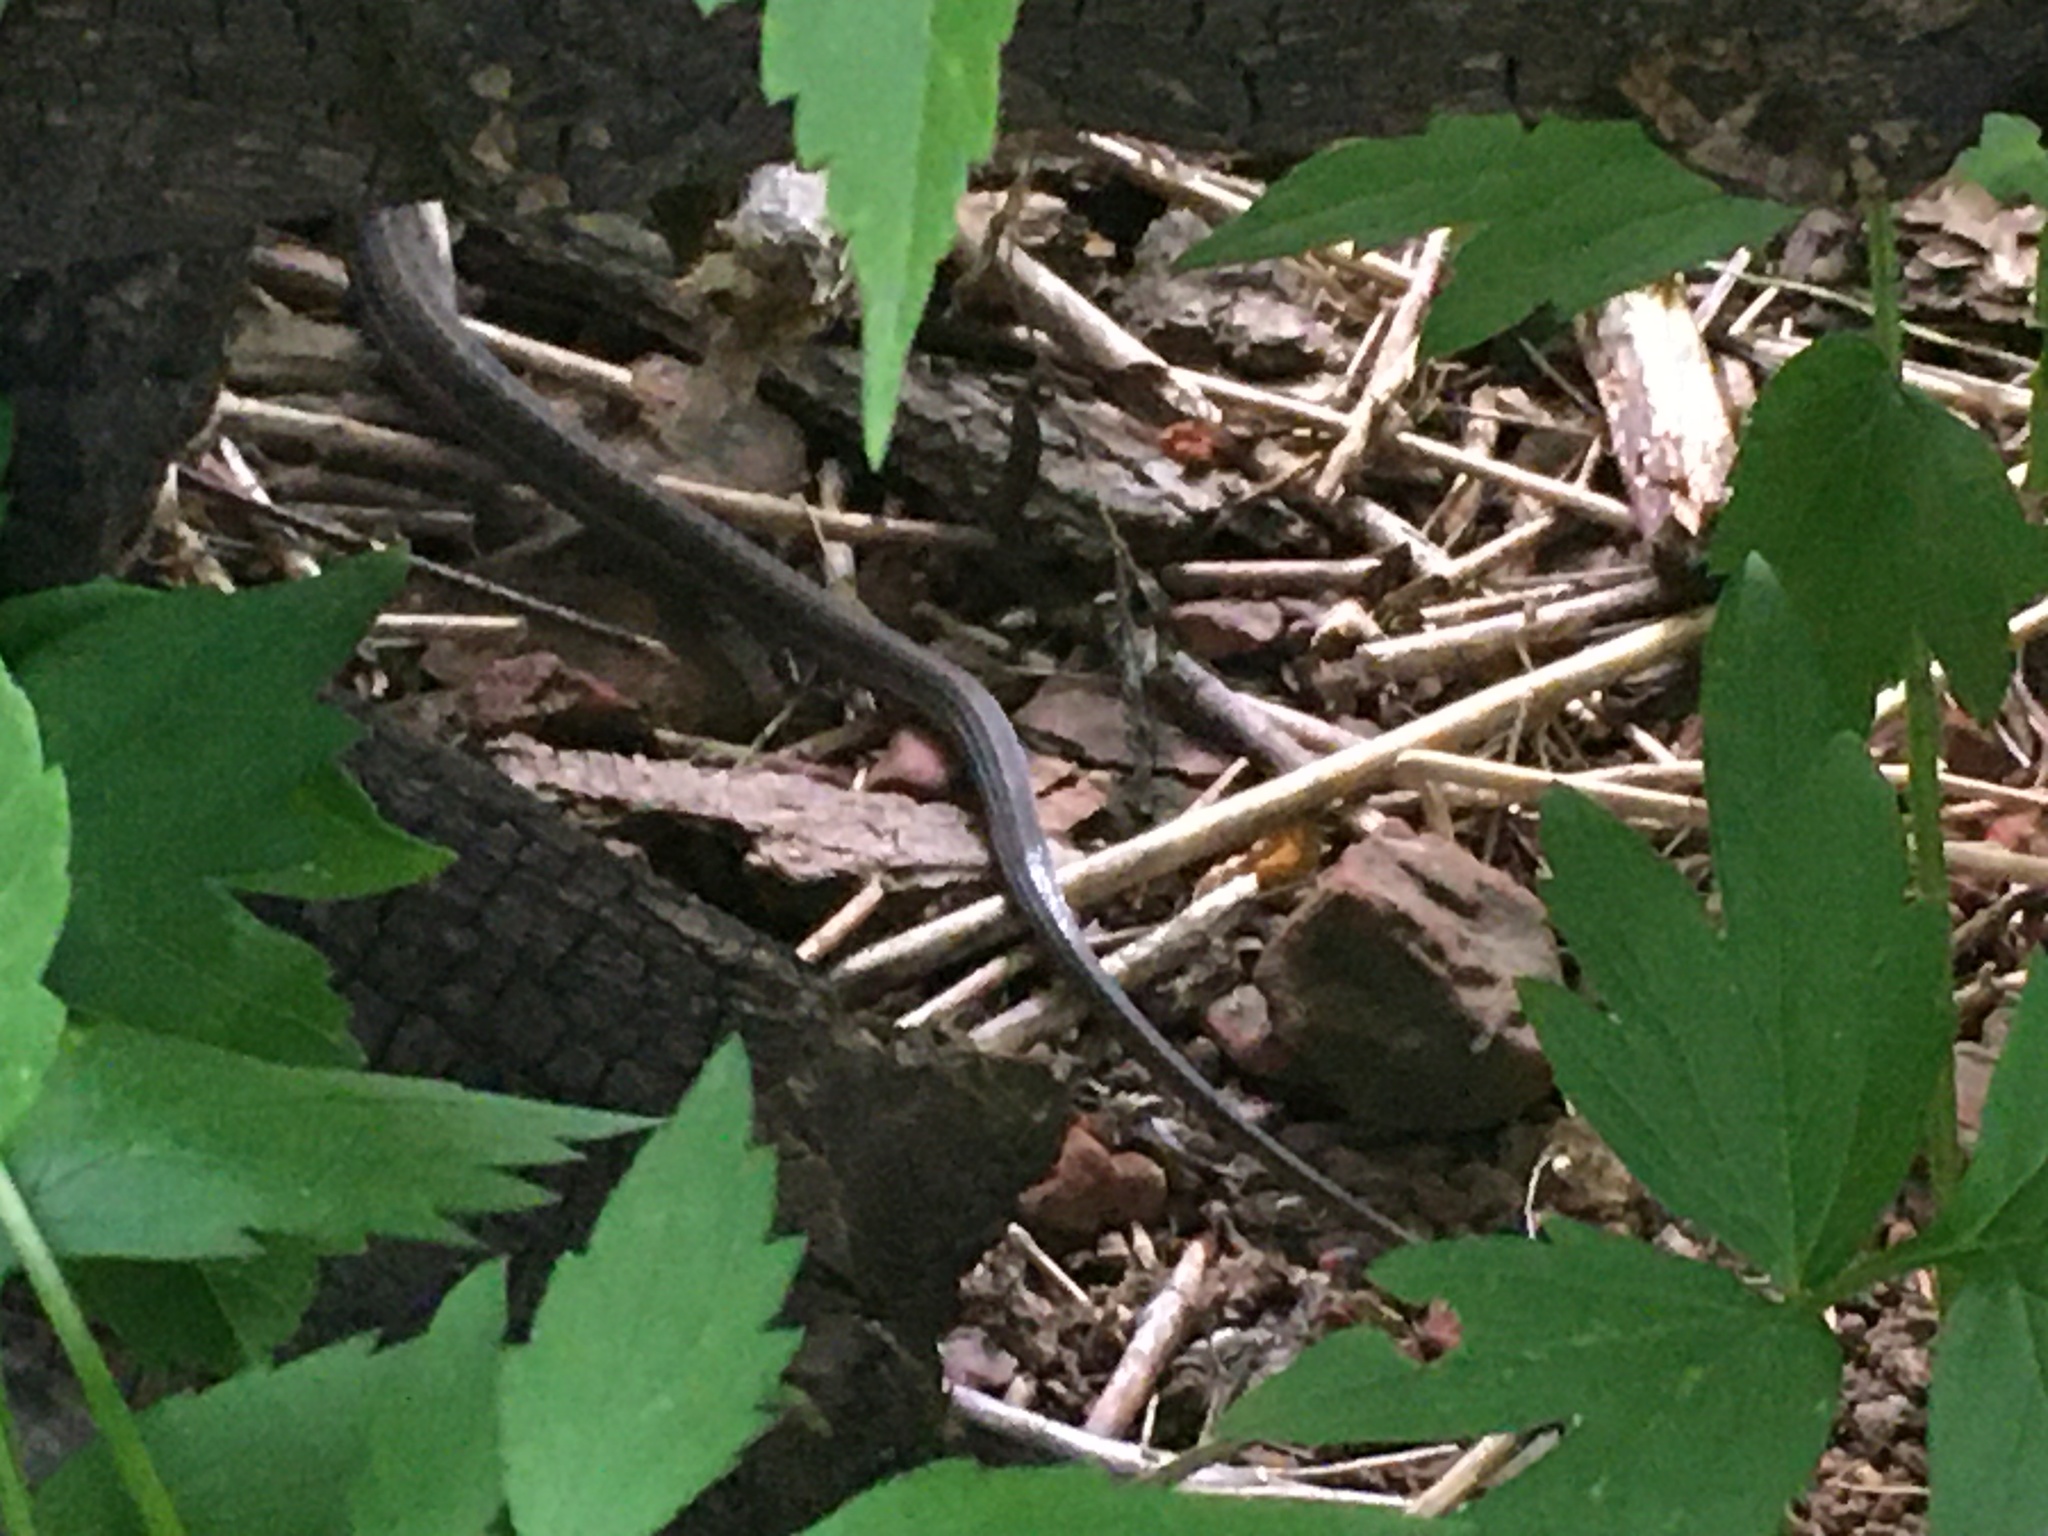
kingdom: Animalia
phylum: Chordata
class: Squamata
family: Colubridae
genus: Thamnophis
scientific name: Thamnophis elegans
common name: Western terrestrial garter snake
